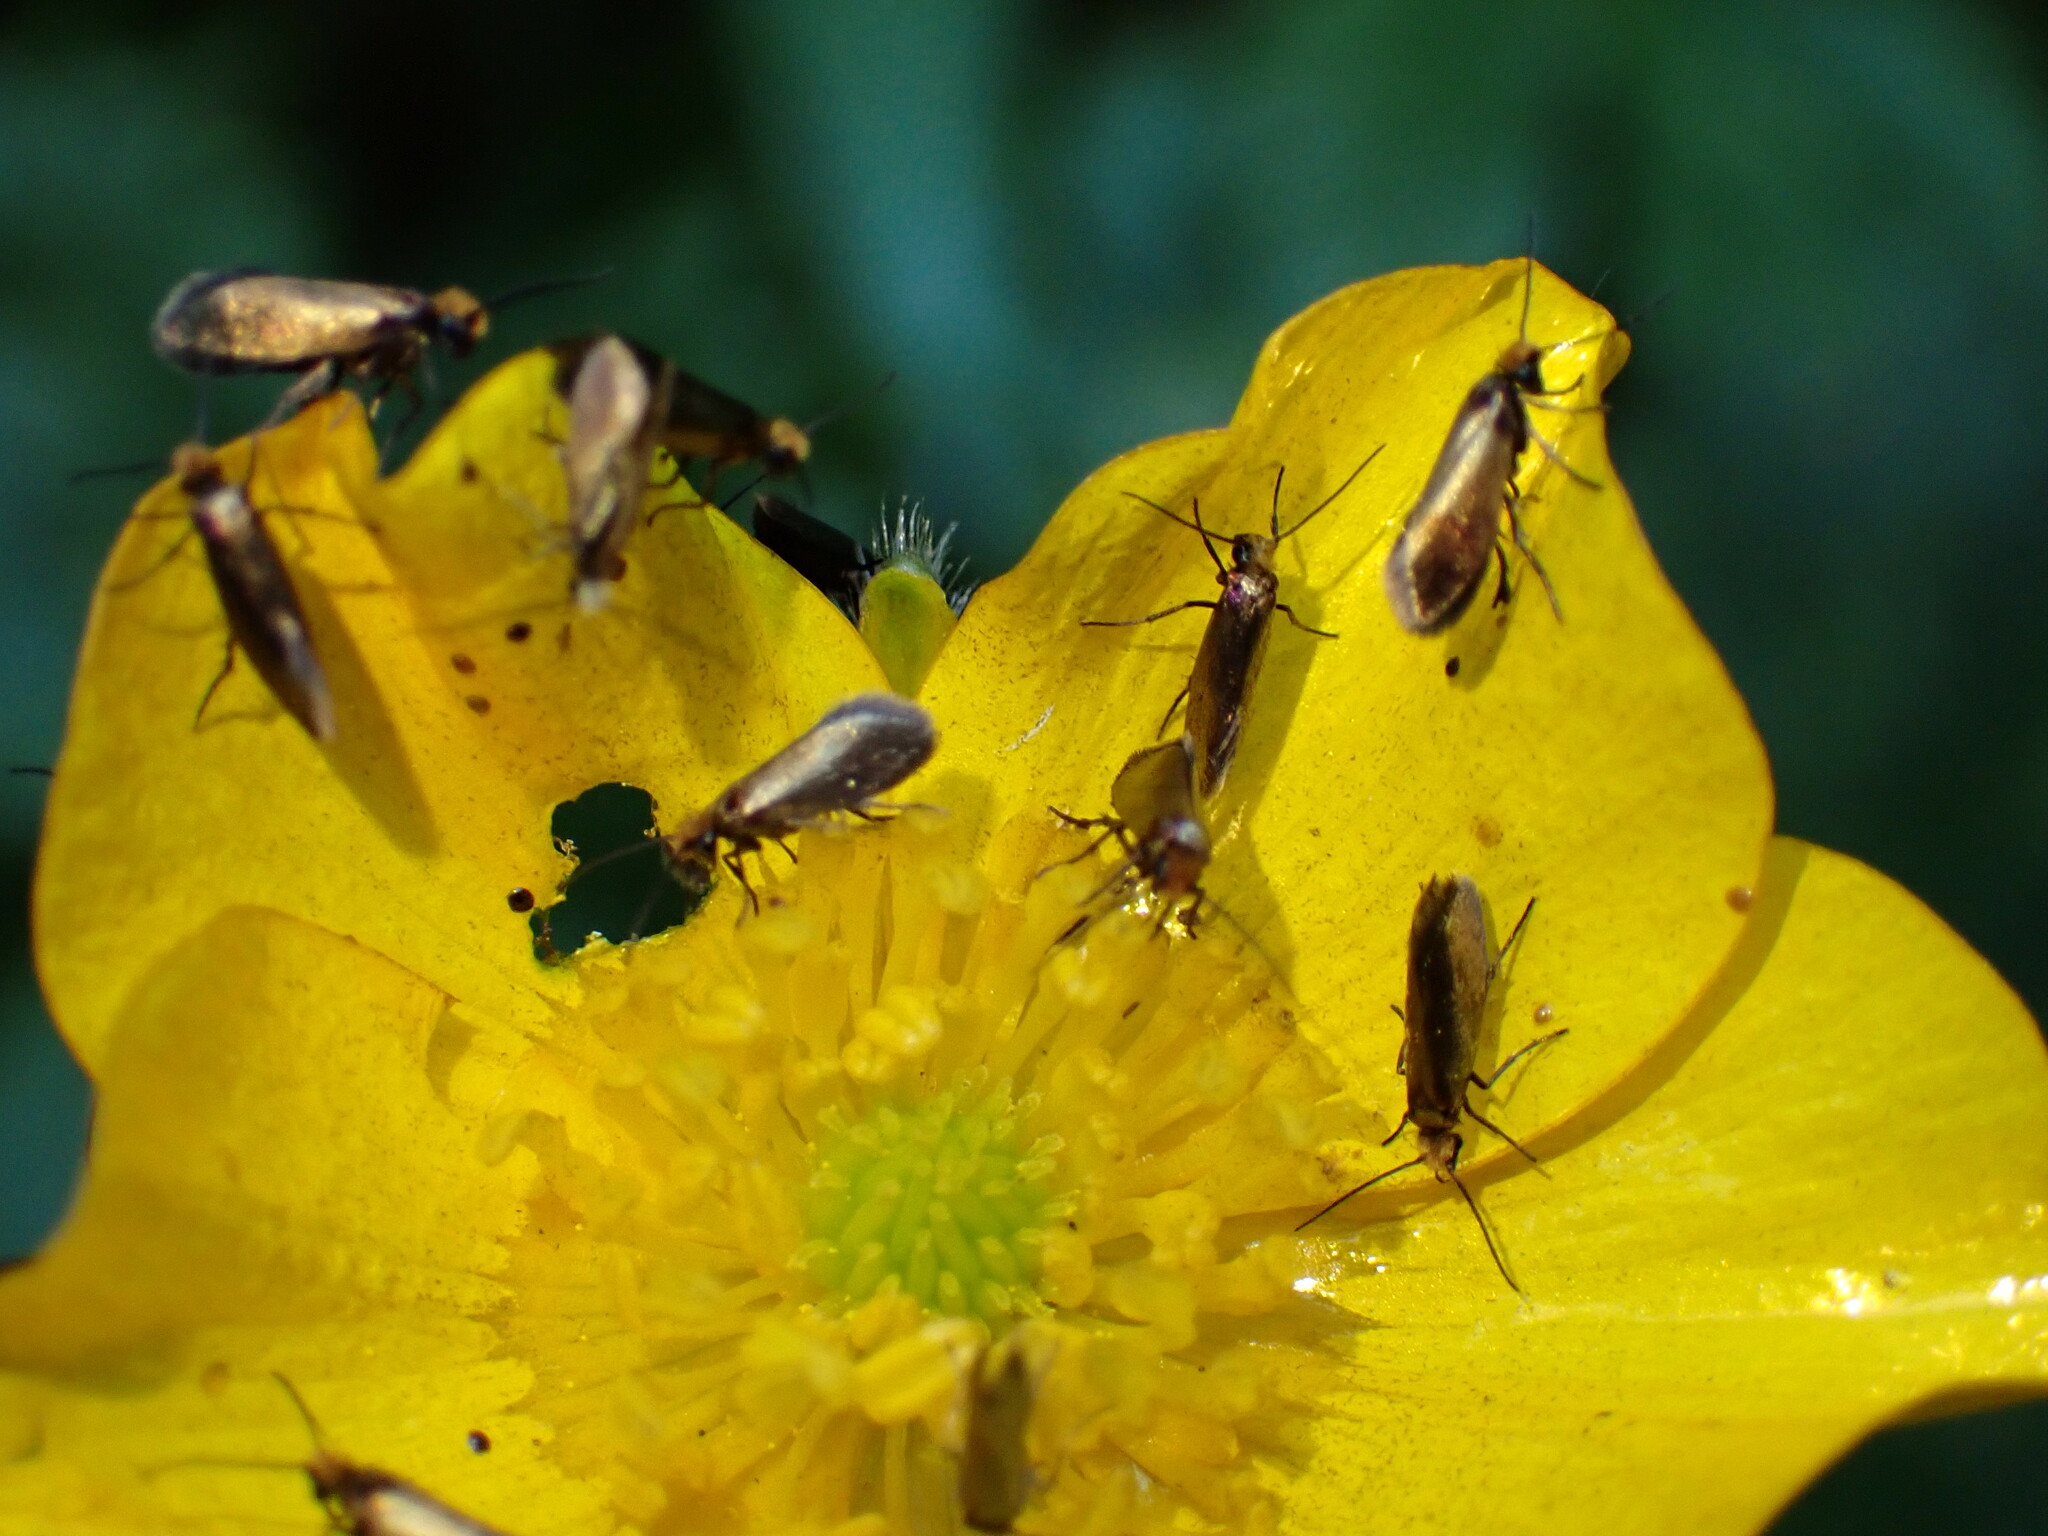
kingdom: Animalia
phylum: Arthropoda
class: Insecta
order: Lepidoptera
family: Micropterigidae
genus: Micropterix
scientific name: Micropterix calthella
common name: Plain gold
